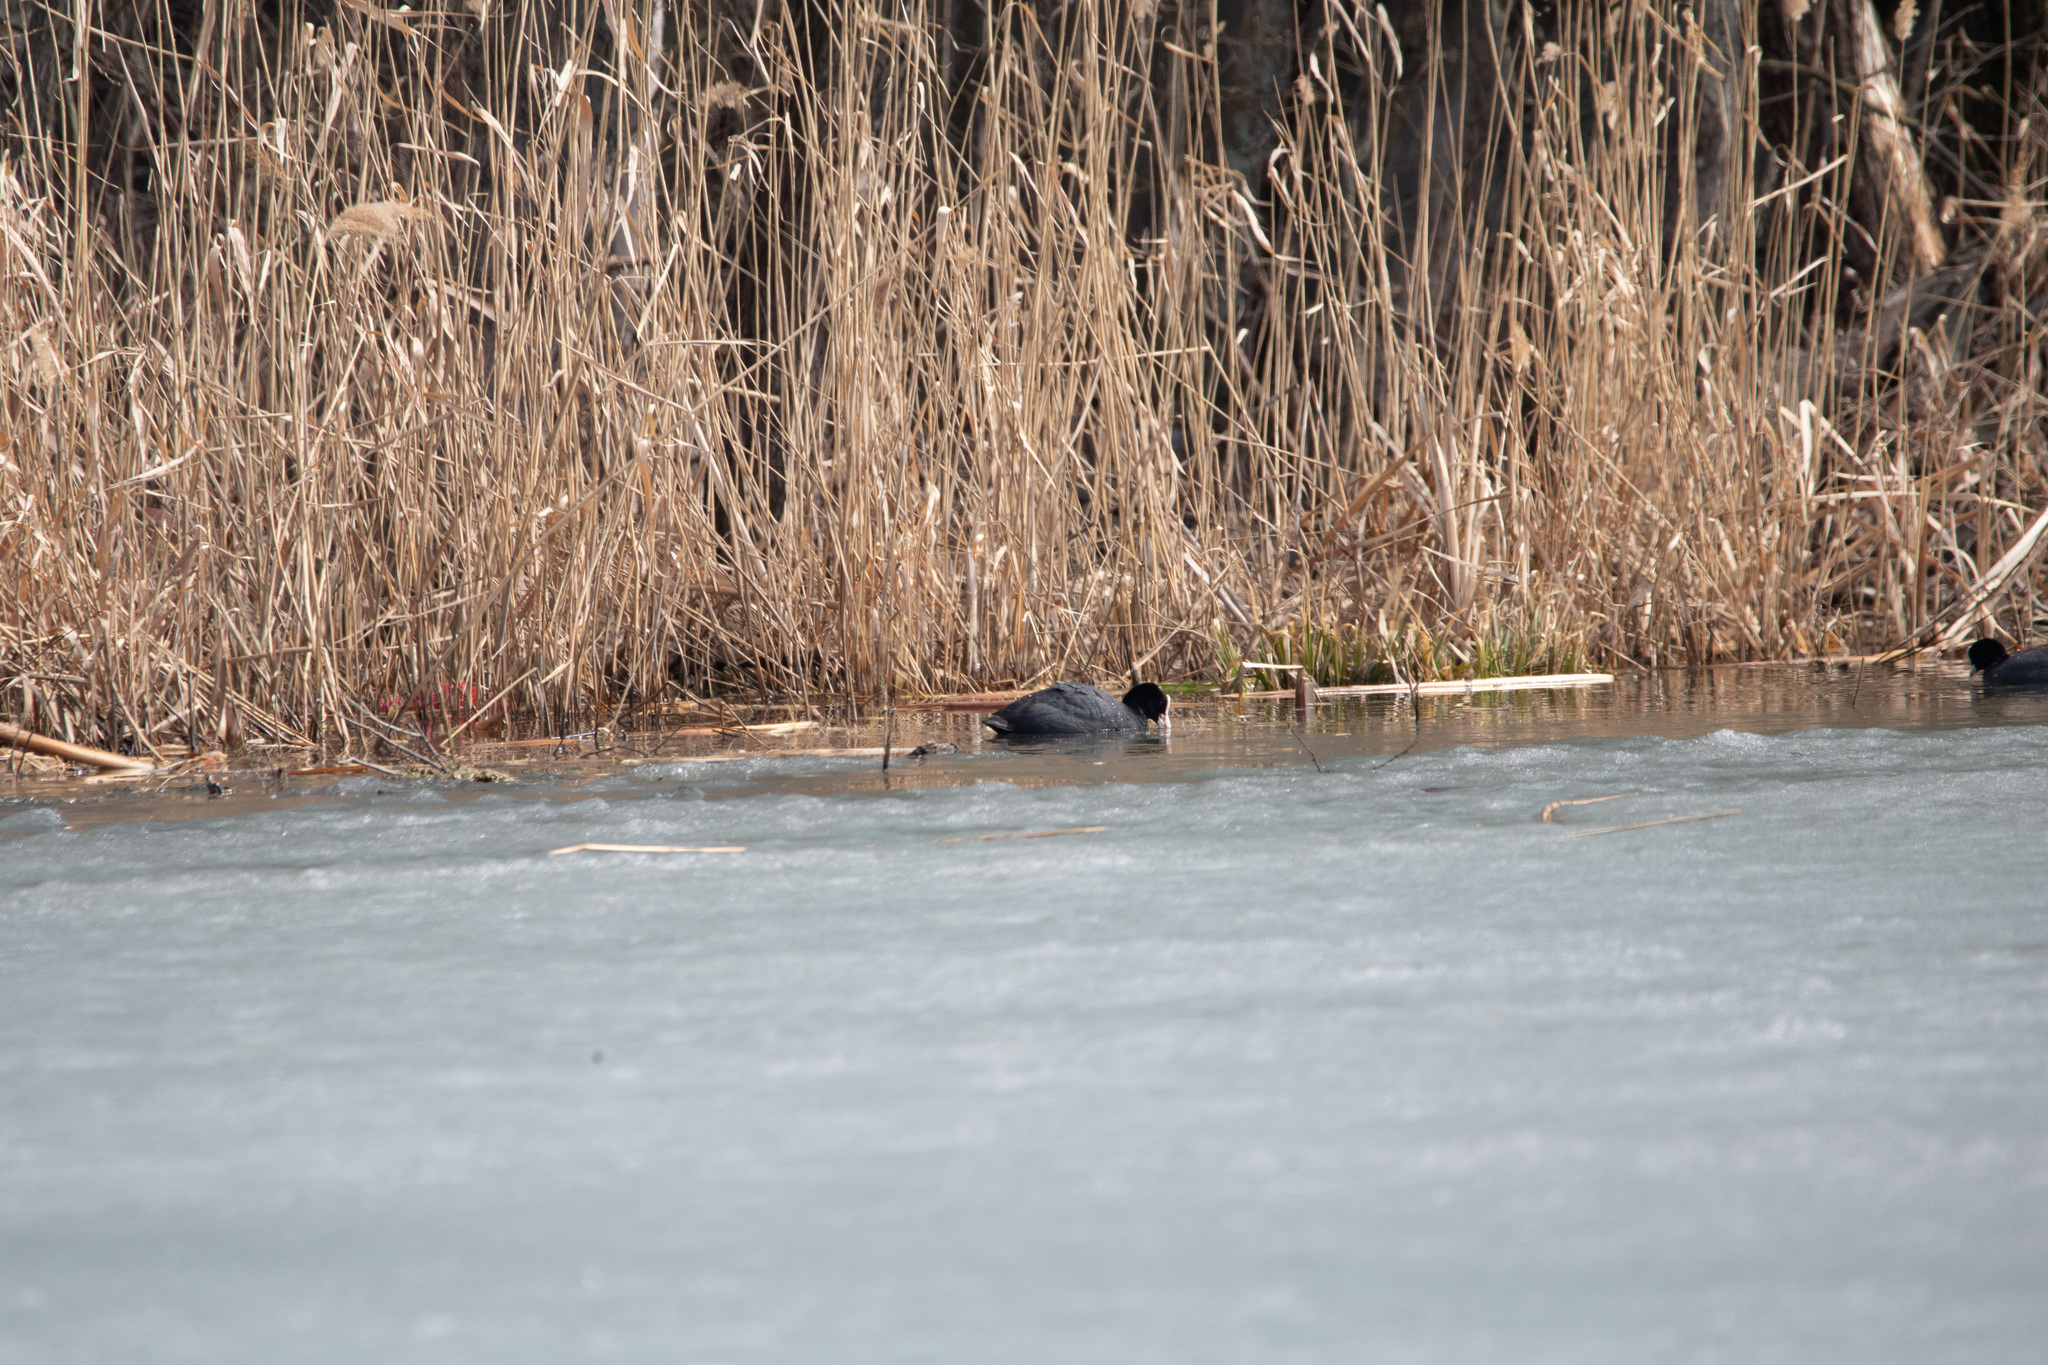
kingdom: Animalia
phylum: Chordata
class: Aves
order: Gruiformes
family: Rallidae
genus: Fulica
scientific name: Fulica atra
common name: Eurasian coot
